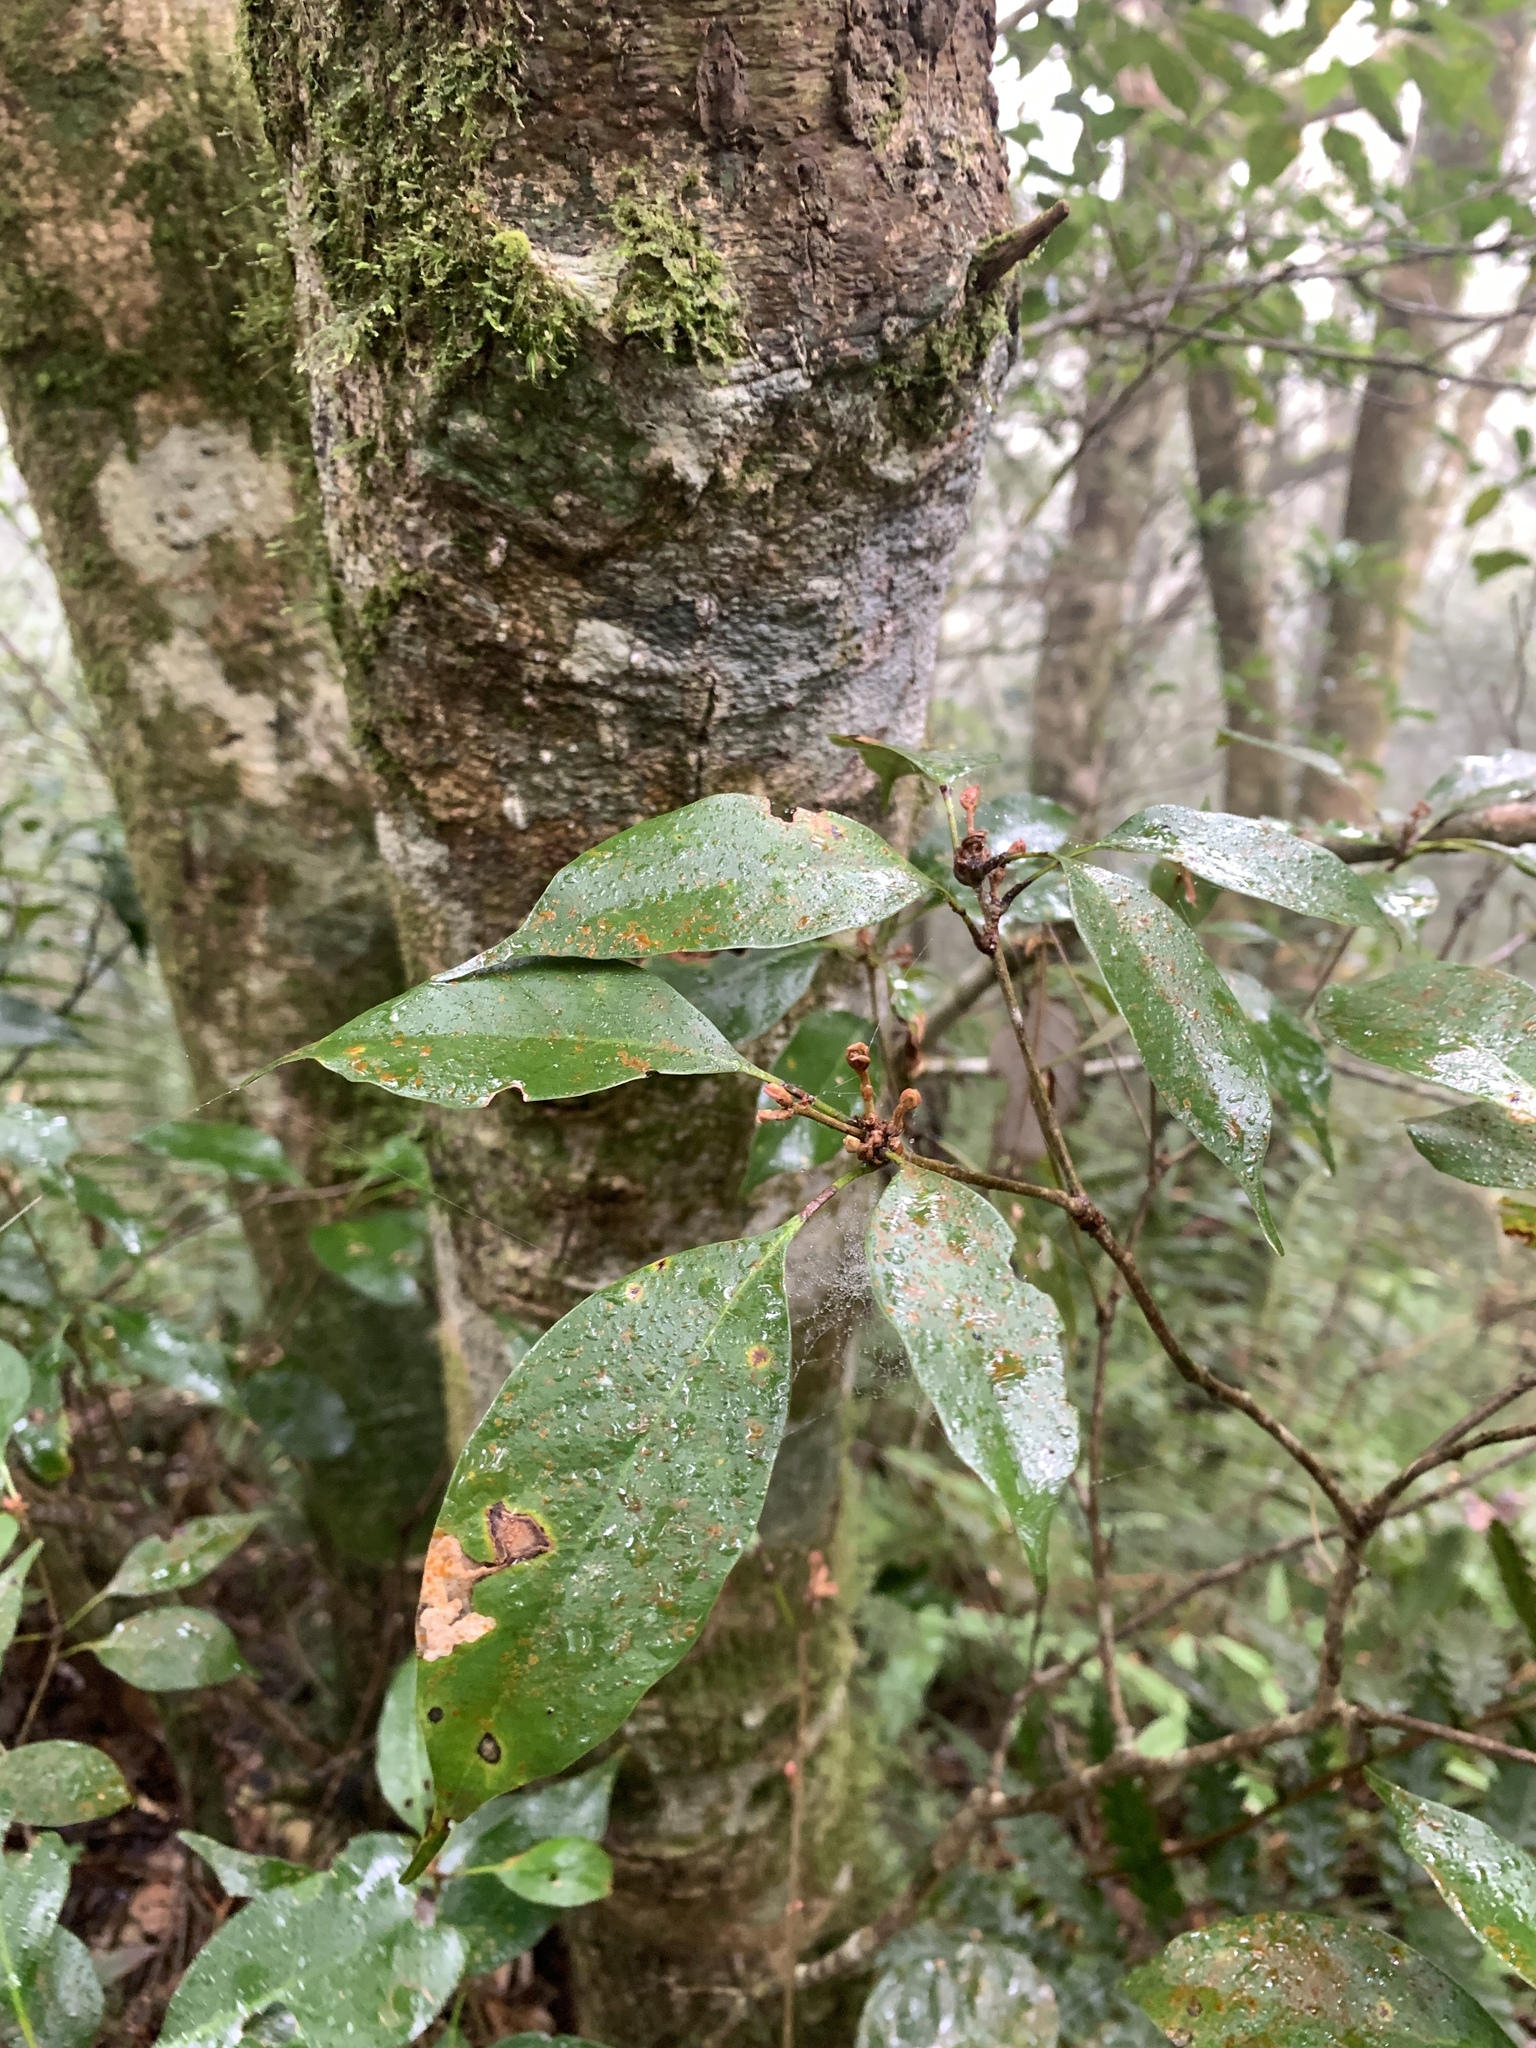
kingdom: Plantae
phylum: Tracheophyta
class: Magnoliopsida
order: Fagales
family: Fagaceae
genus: Quercus
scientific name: Quercus glauca
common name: Ring-cup oak
